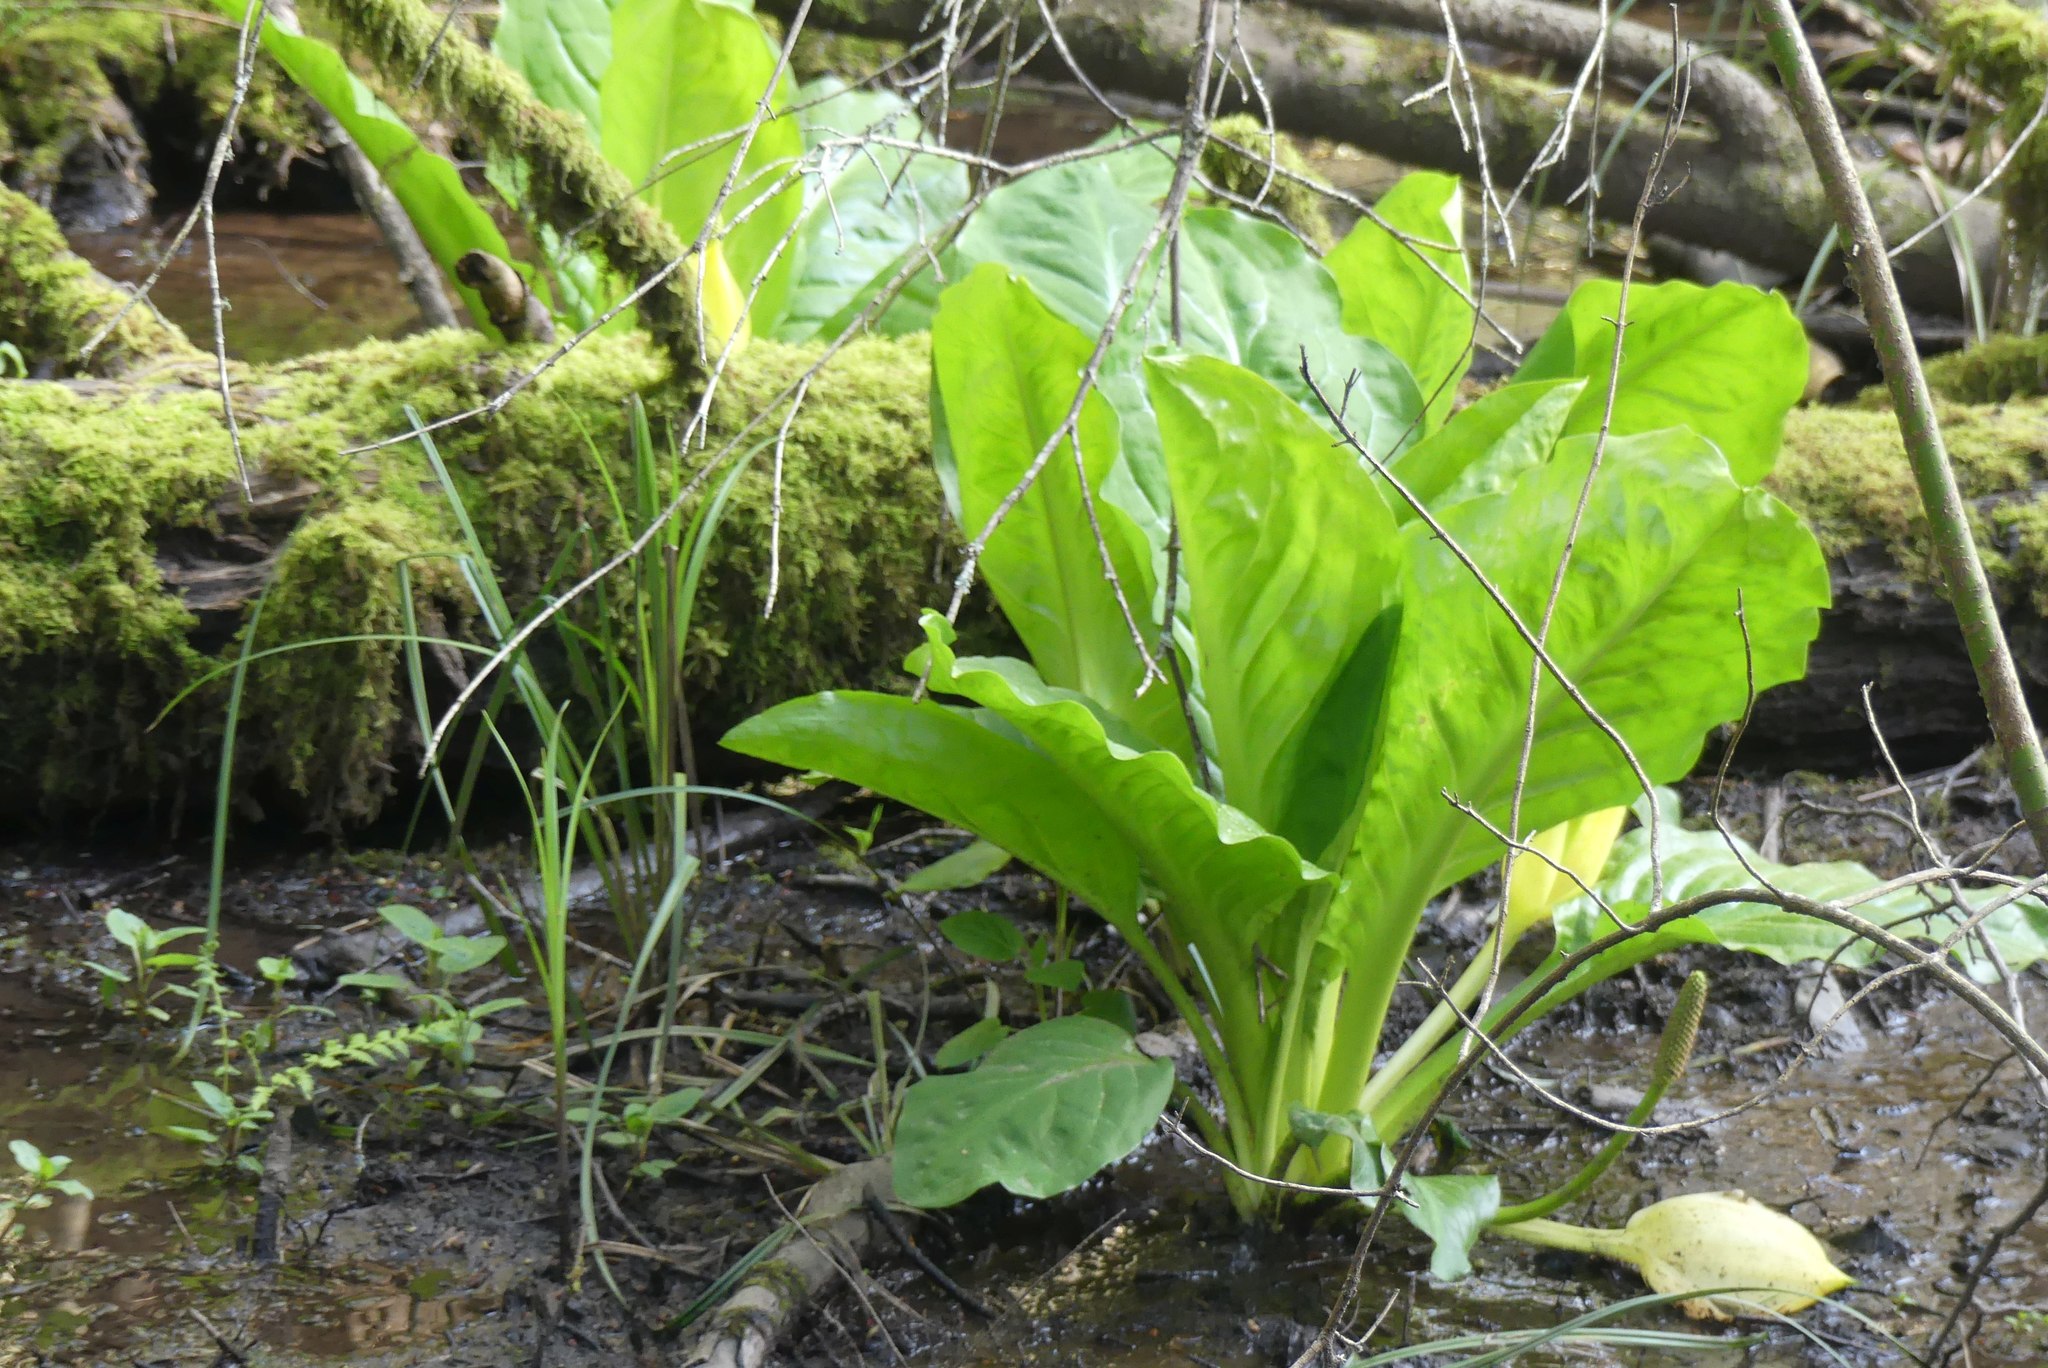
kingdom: Plantae
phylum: Tracheophyta
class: Liliopsida
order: Alismatales
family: Araceae
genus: Lysichiton
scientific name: Lysichiton americanus
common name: American skunk cabbage
